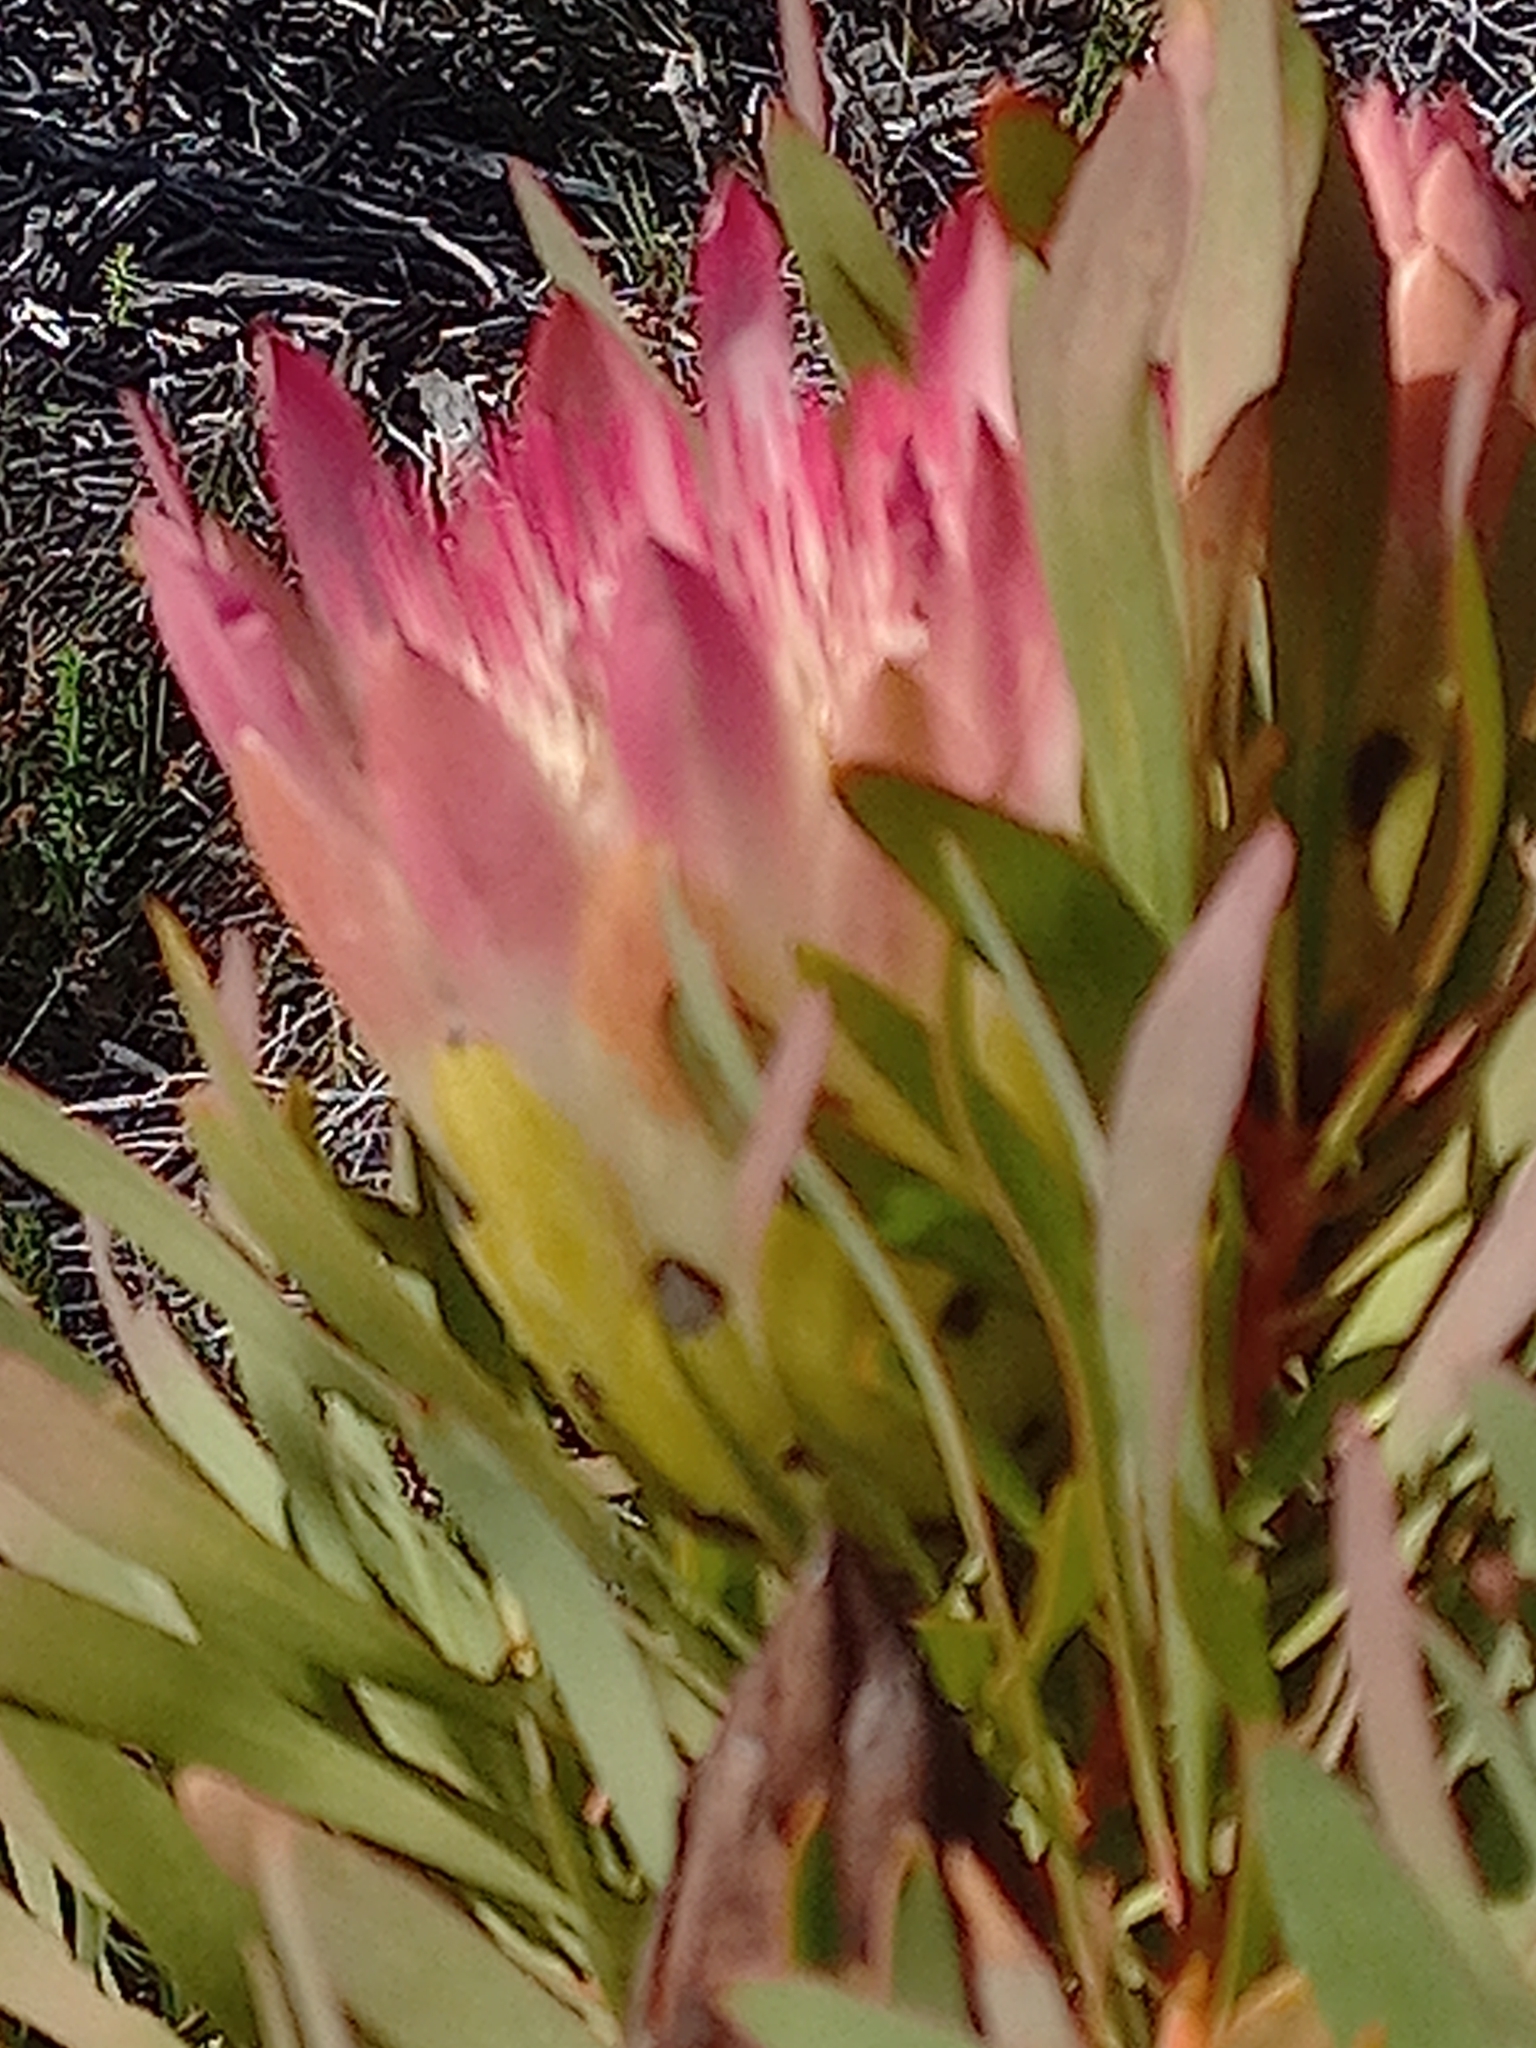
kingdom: Plantae
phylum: Tracheophyta
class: Magnoliopsida
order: Proteales
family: Proteaceae
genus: Protea
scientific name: Protea repens
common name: Sugarbush
